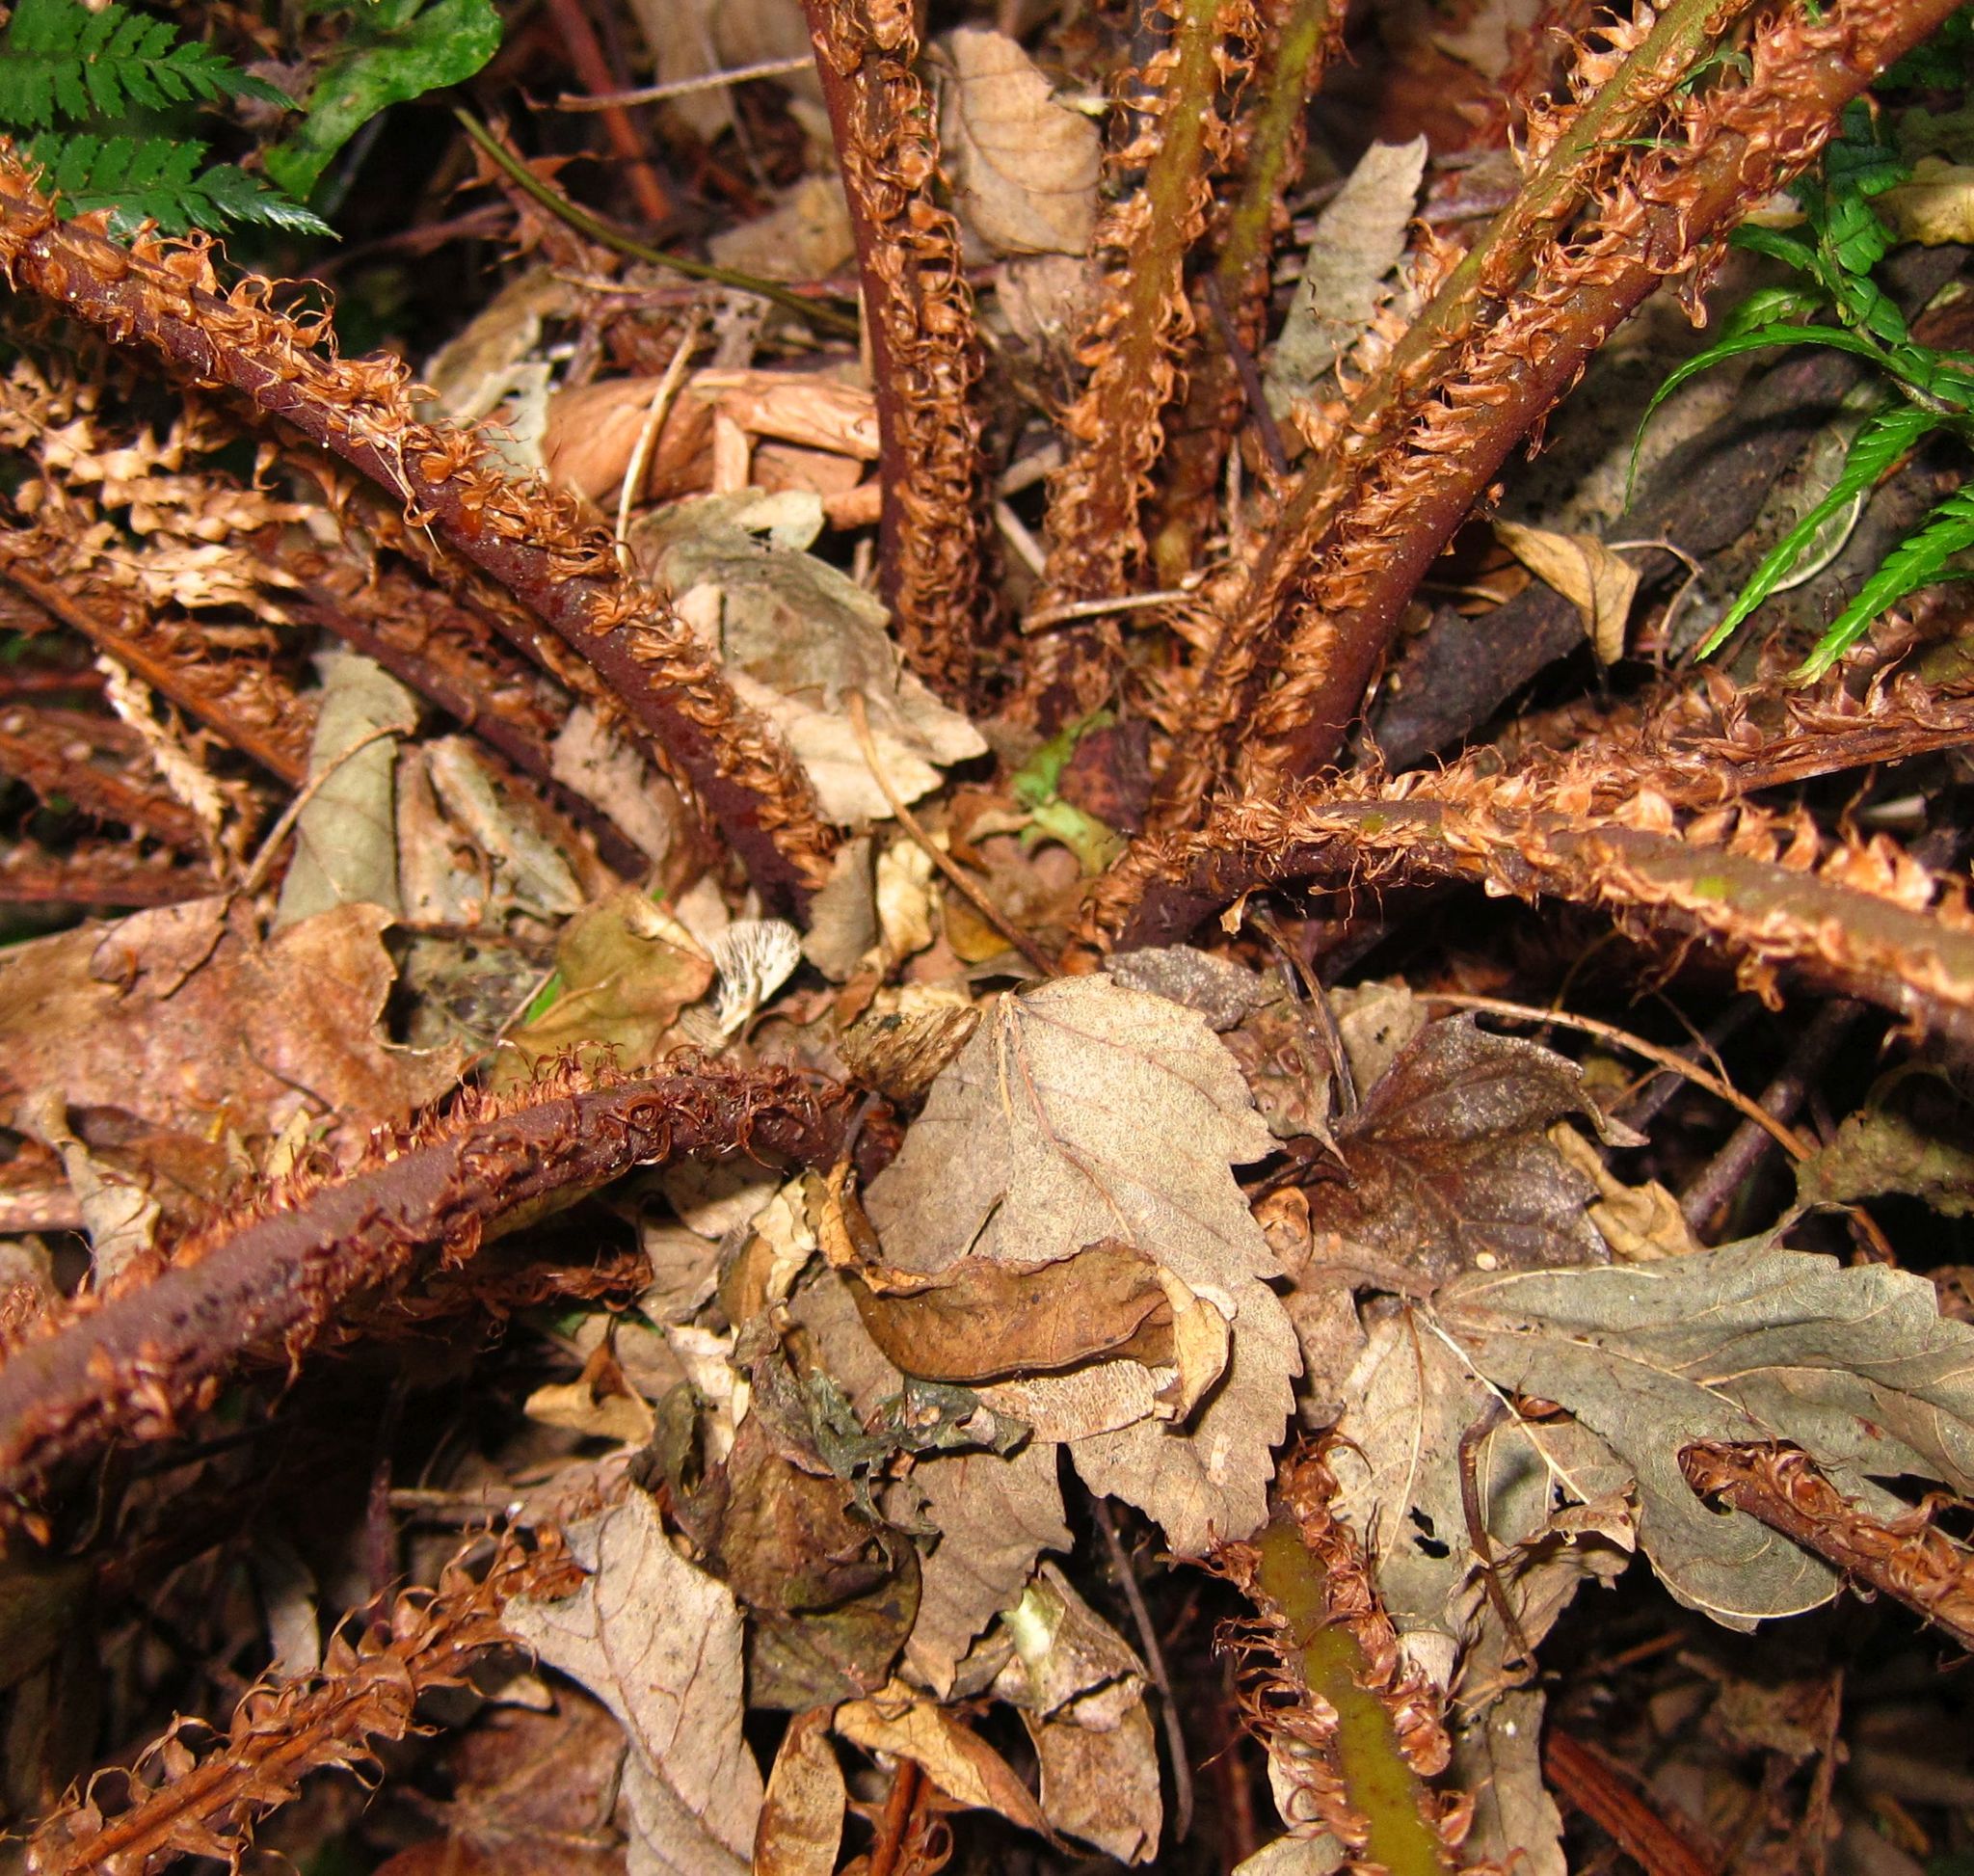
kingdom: Plantae
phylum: Tracheophyta
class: Polypodiopsida
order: Cyatheales
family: Cyatheaceae
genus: Alsophila
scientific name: Alsophila smithii
